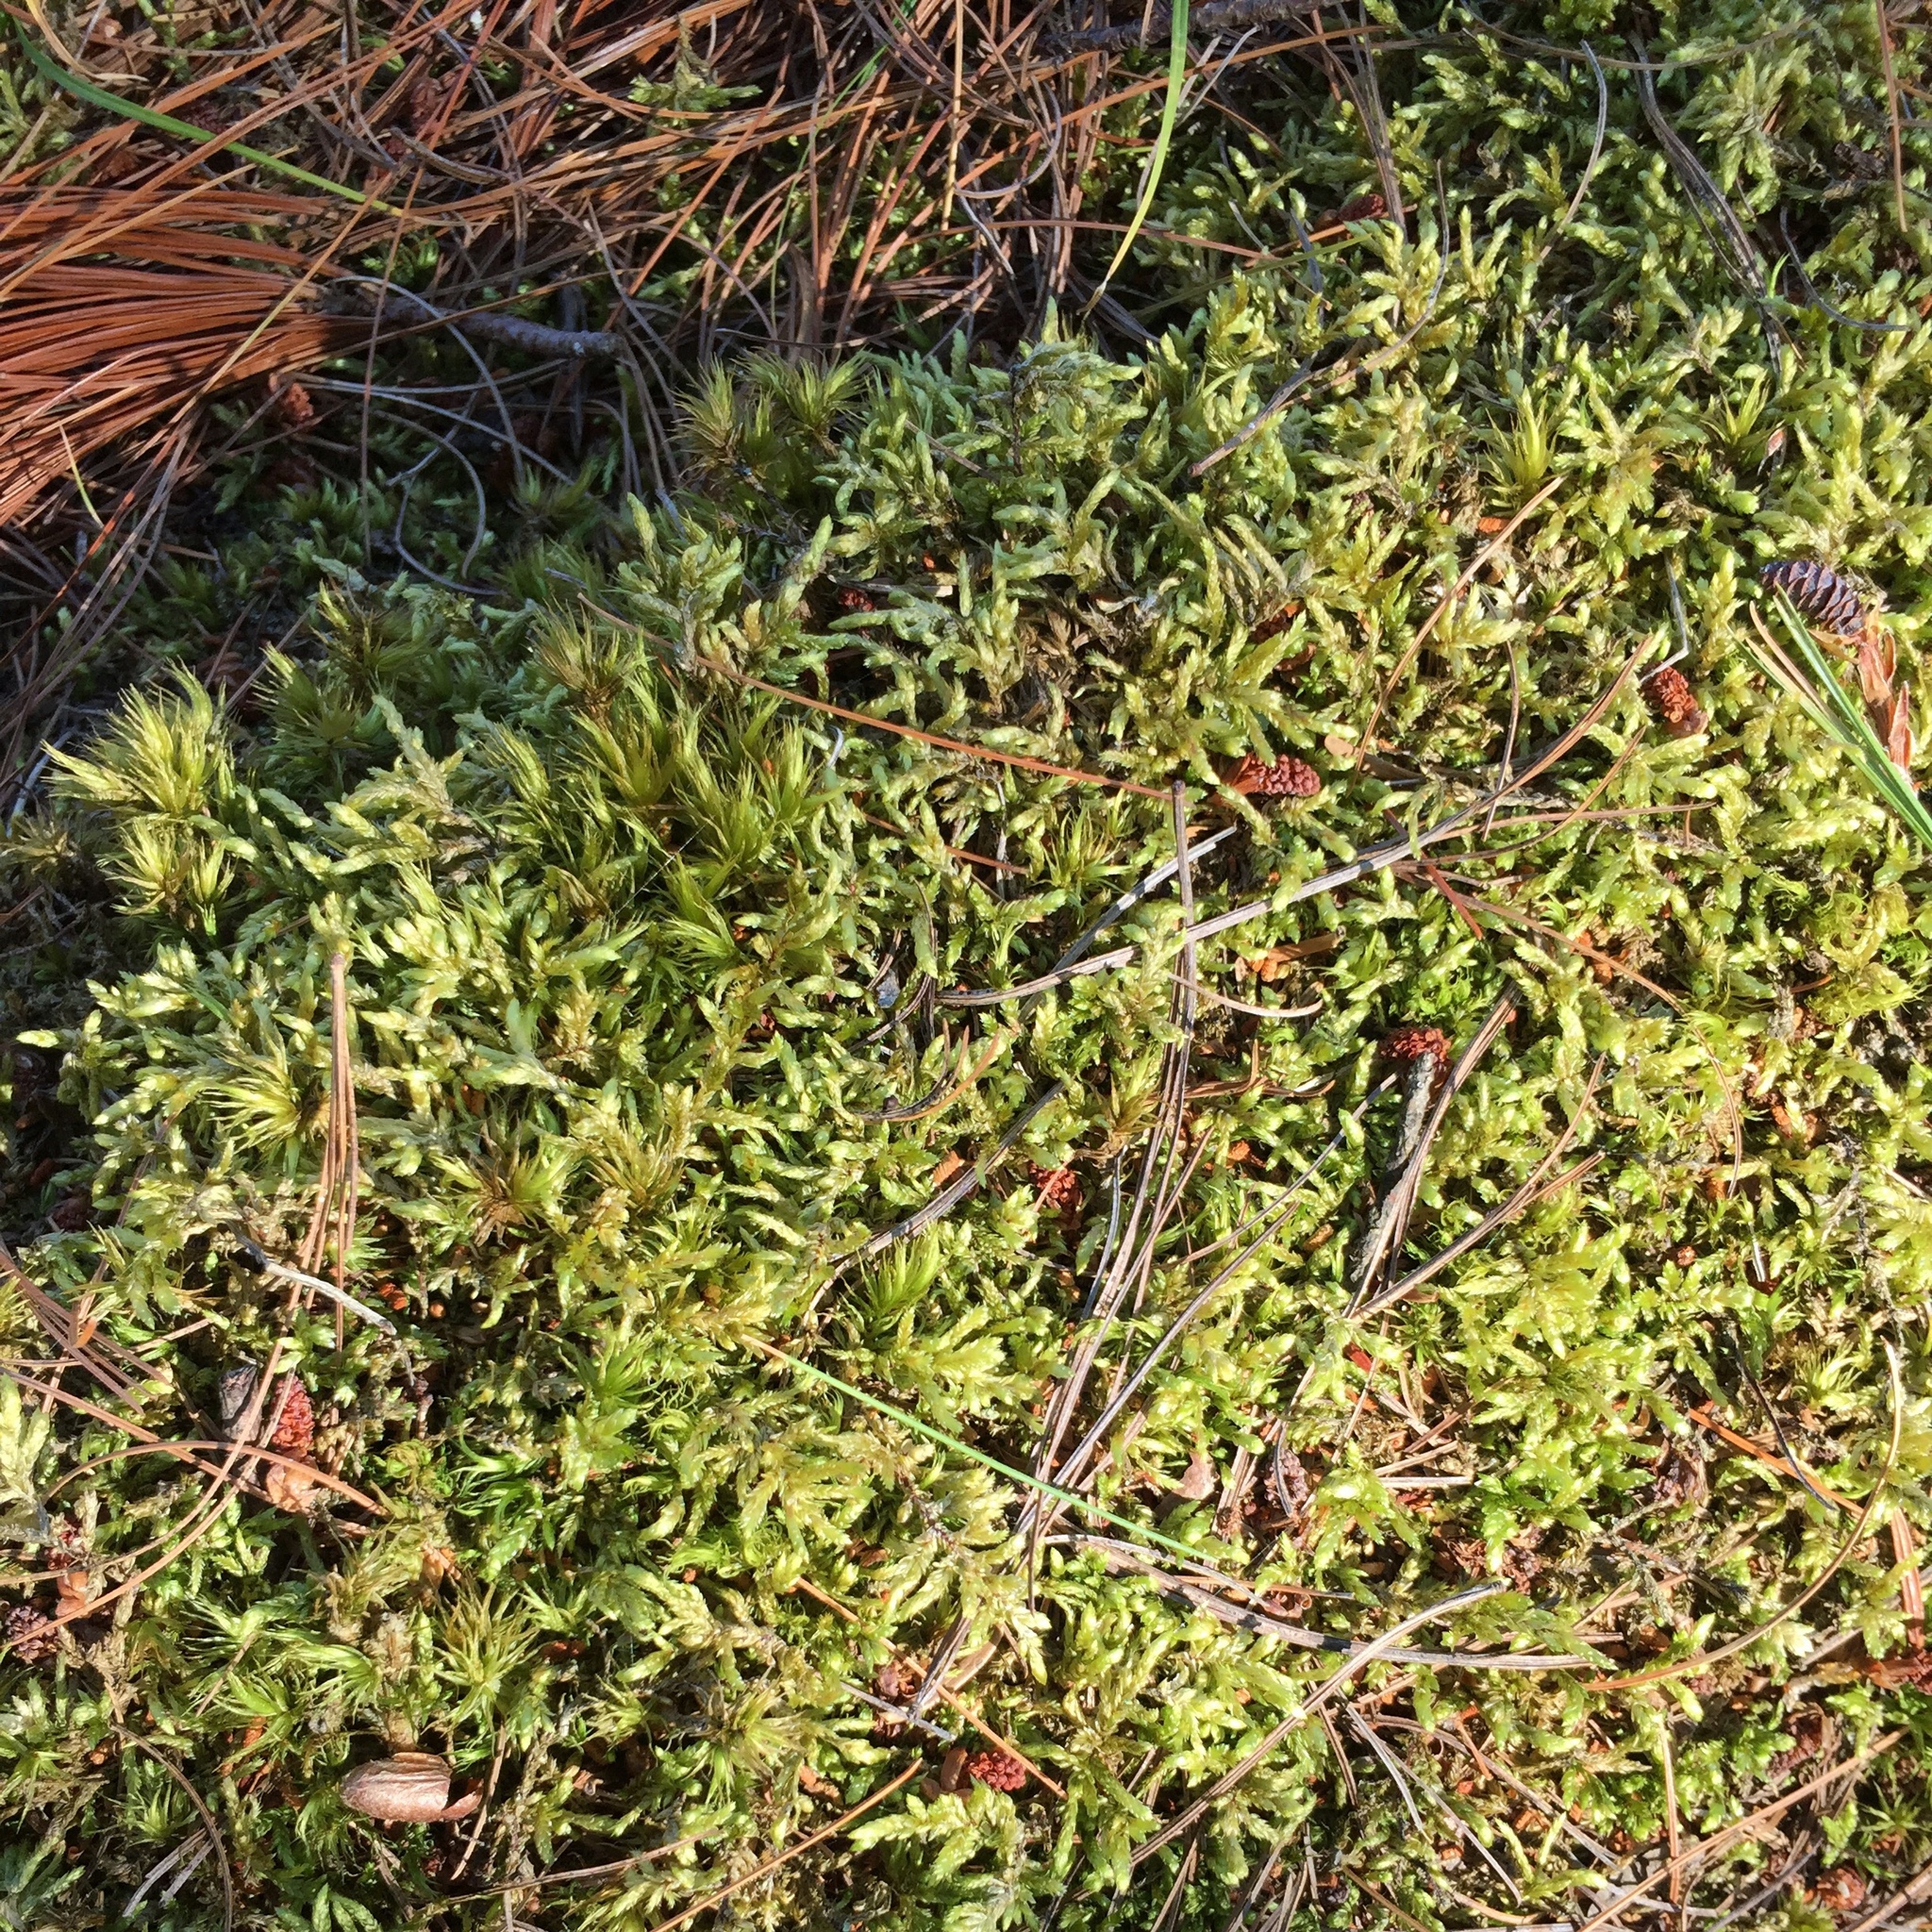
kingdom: Plantae
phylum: Bryophyta
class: Bryopsida
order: Dicranales
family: Dicranaceae
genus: Dicranum
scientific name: Dicranum polysetum
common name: Rugose fork-moss
